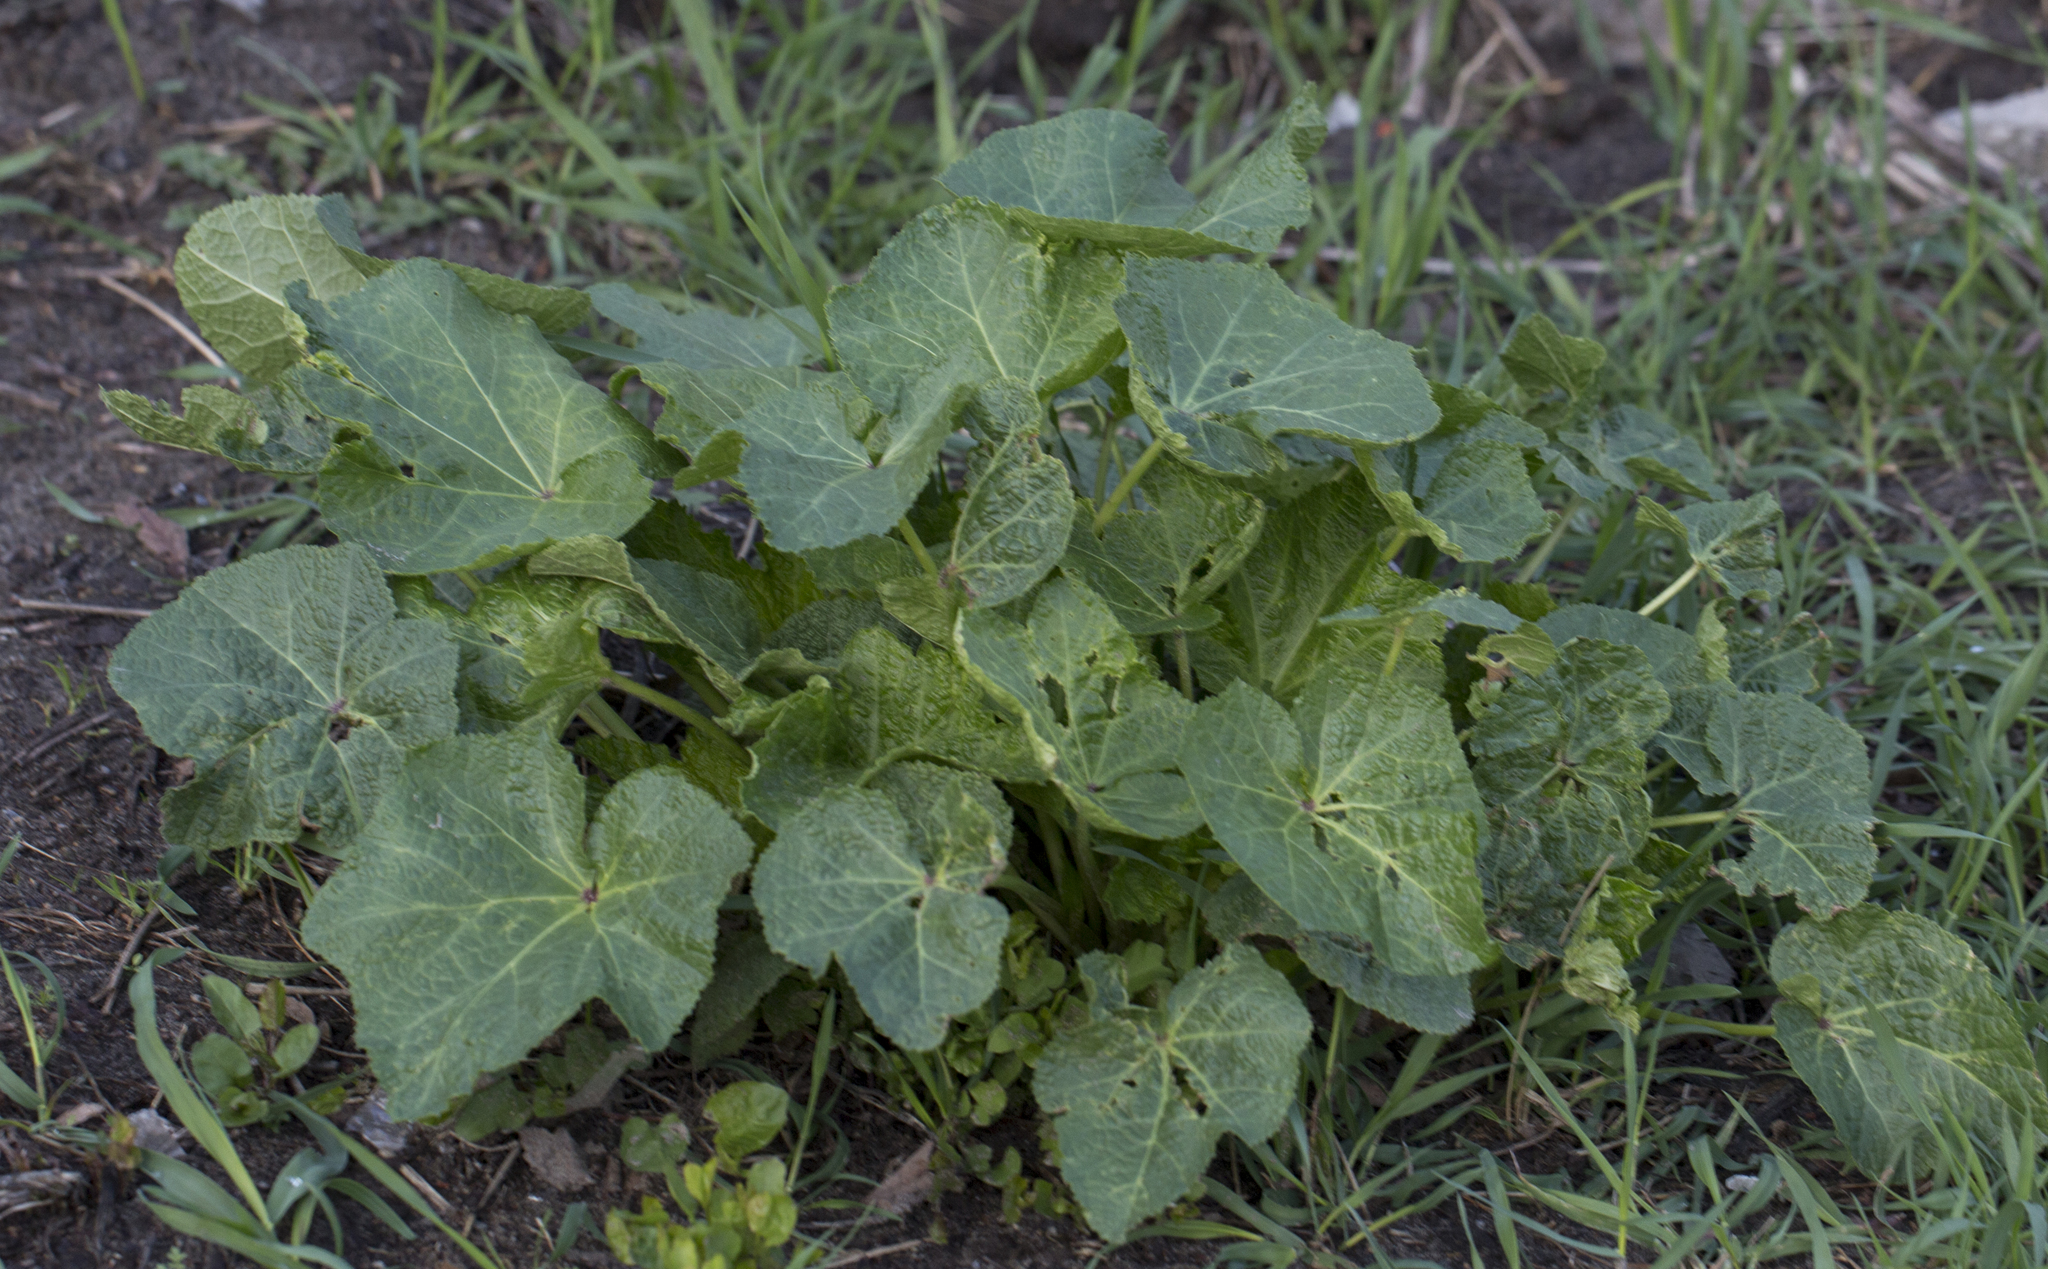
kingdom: Plantae
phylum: Tracheophyta
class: Magnoliopsida
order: Malvales
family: Malvaceae
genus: Alcea
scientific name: Alcea rosea
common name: Hollyhock
